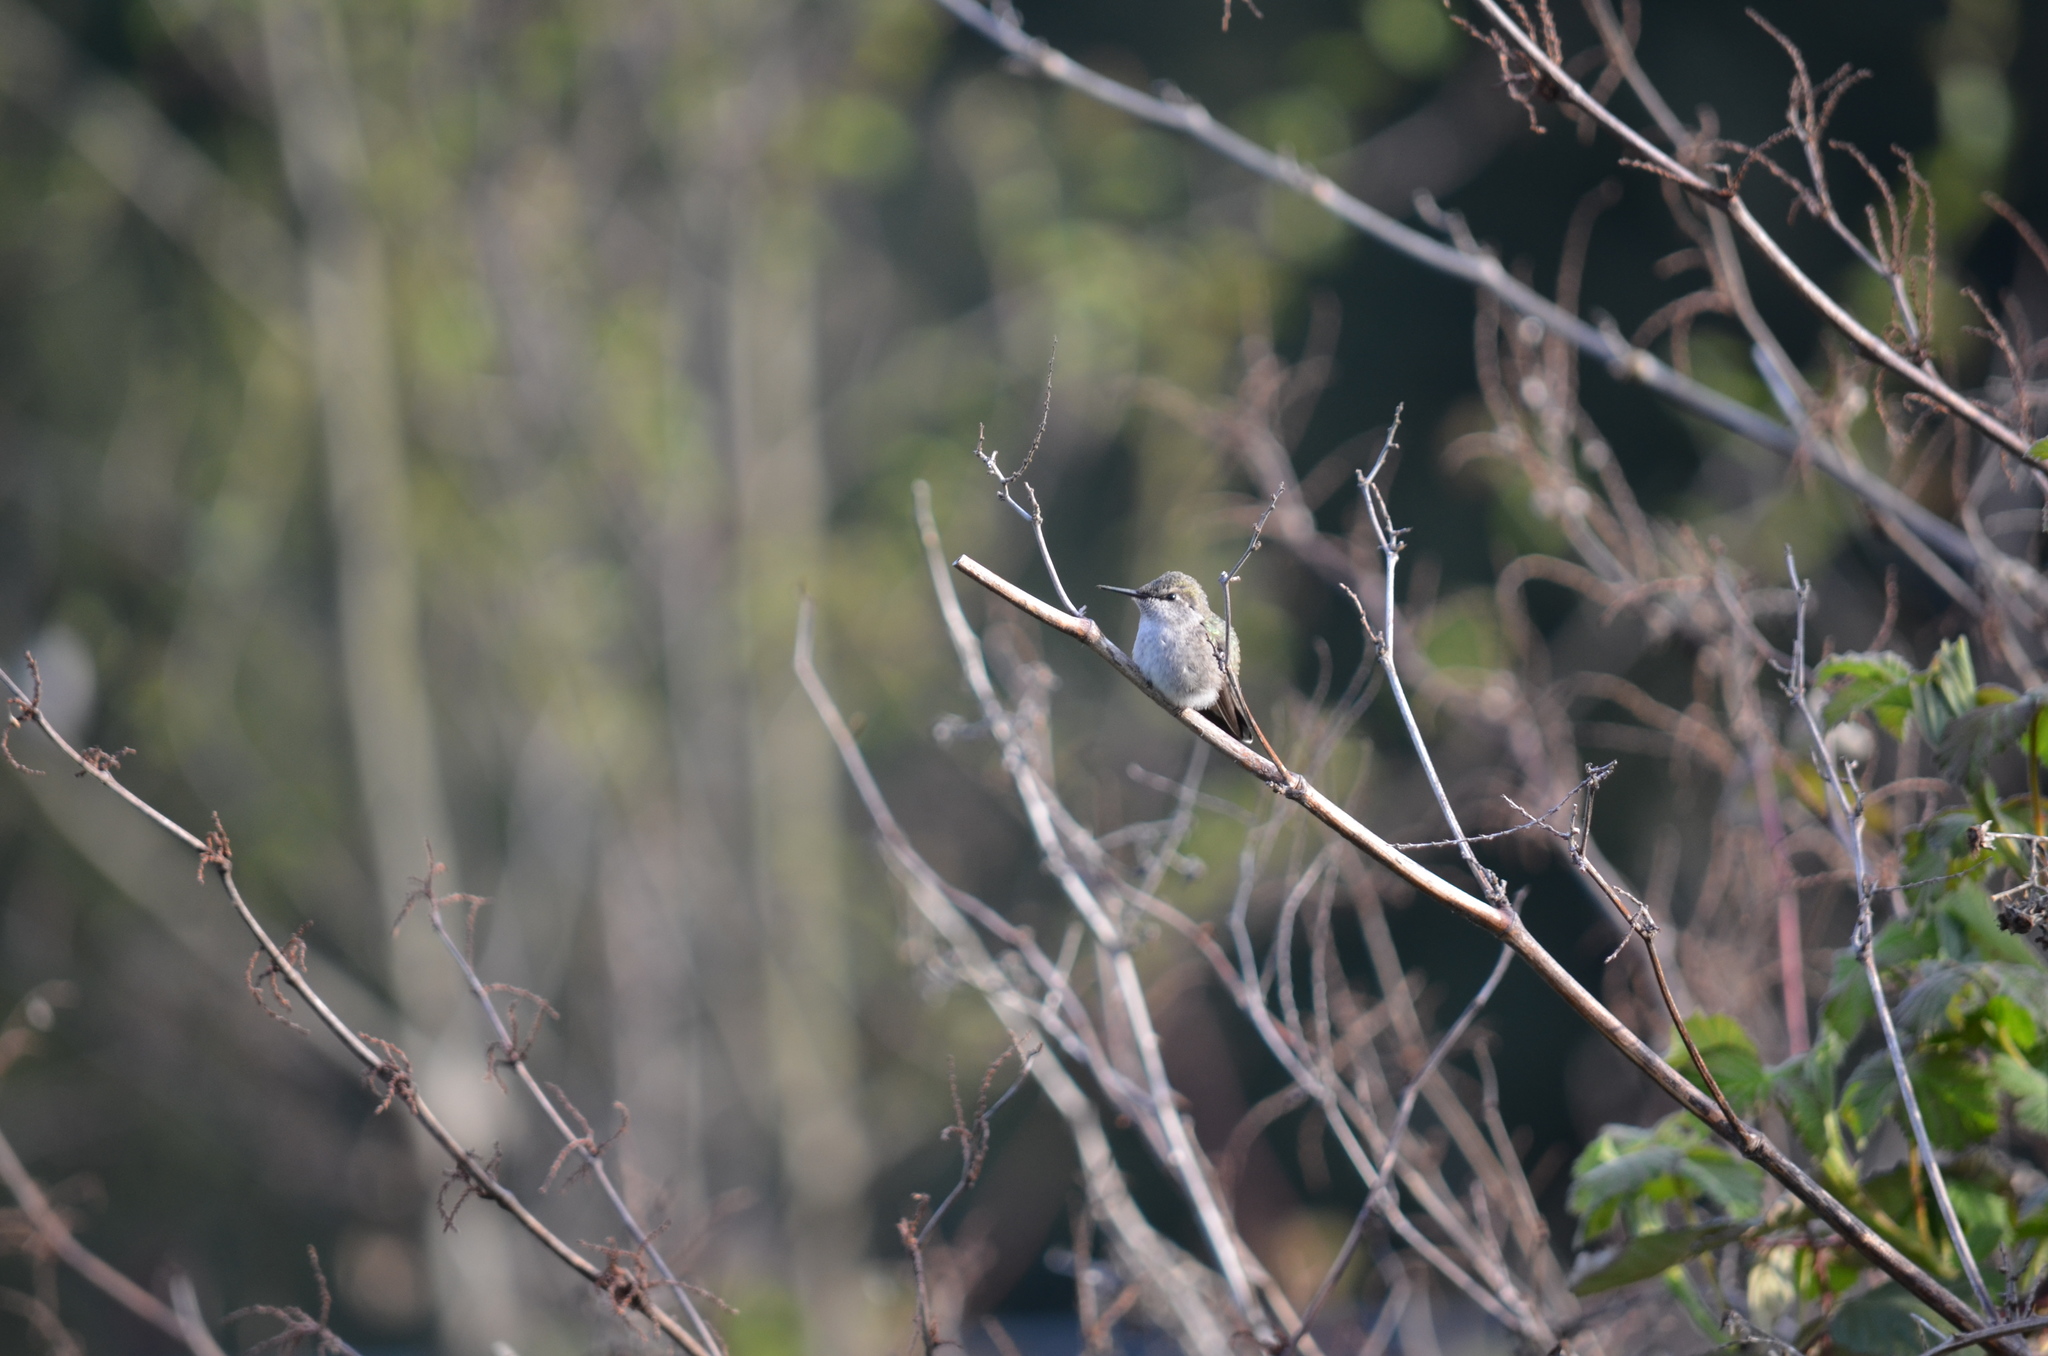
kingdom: Animalia
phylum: Chordata
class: Aves
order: Apodiformes
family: Trochilidae
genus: Calypte
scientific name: Calypte anna
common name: Anna's hummingbird
